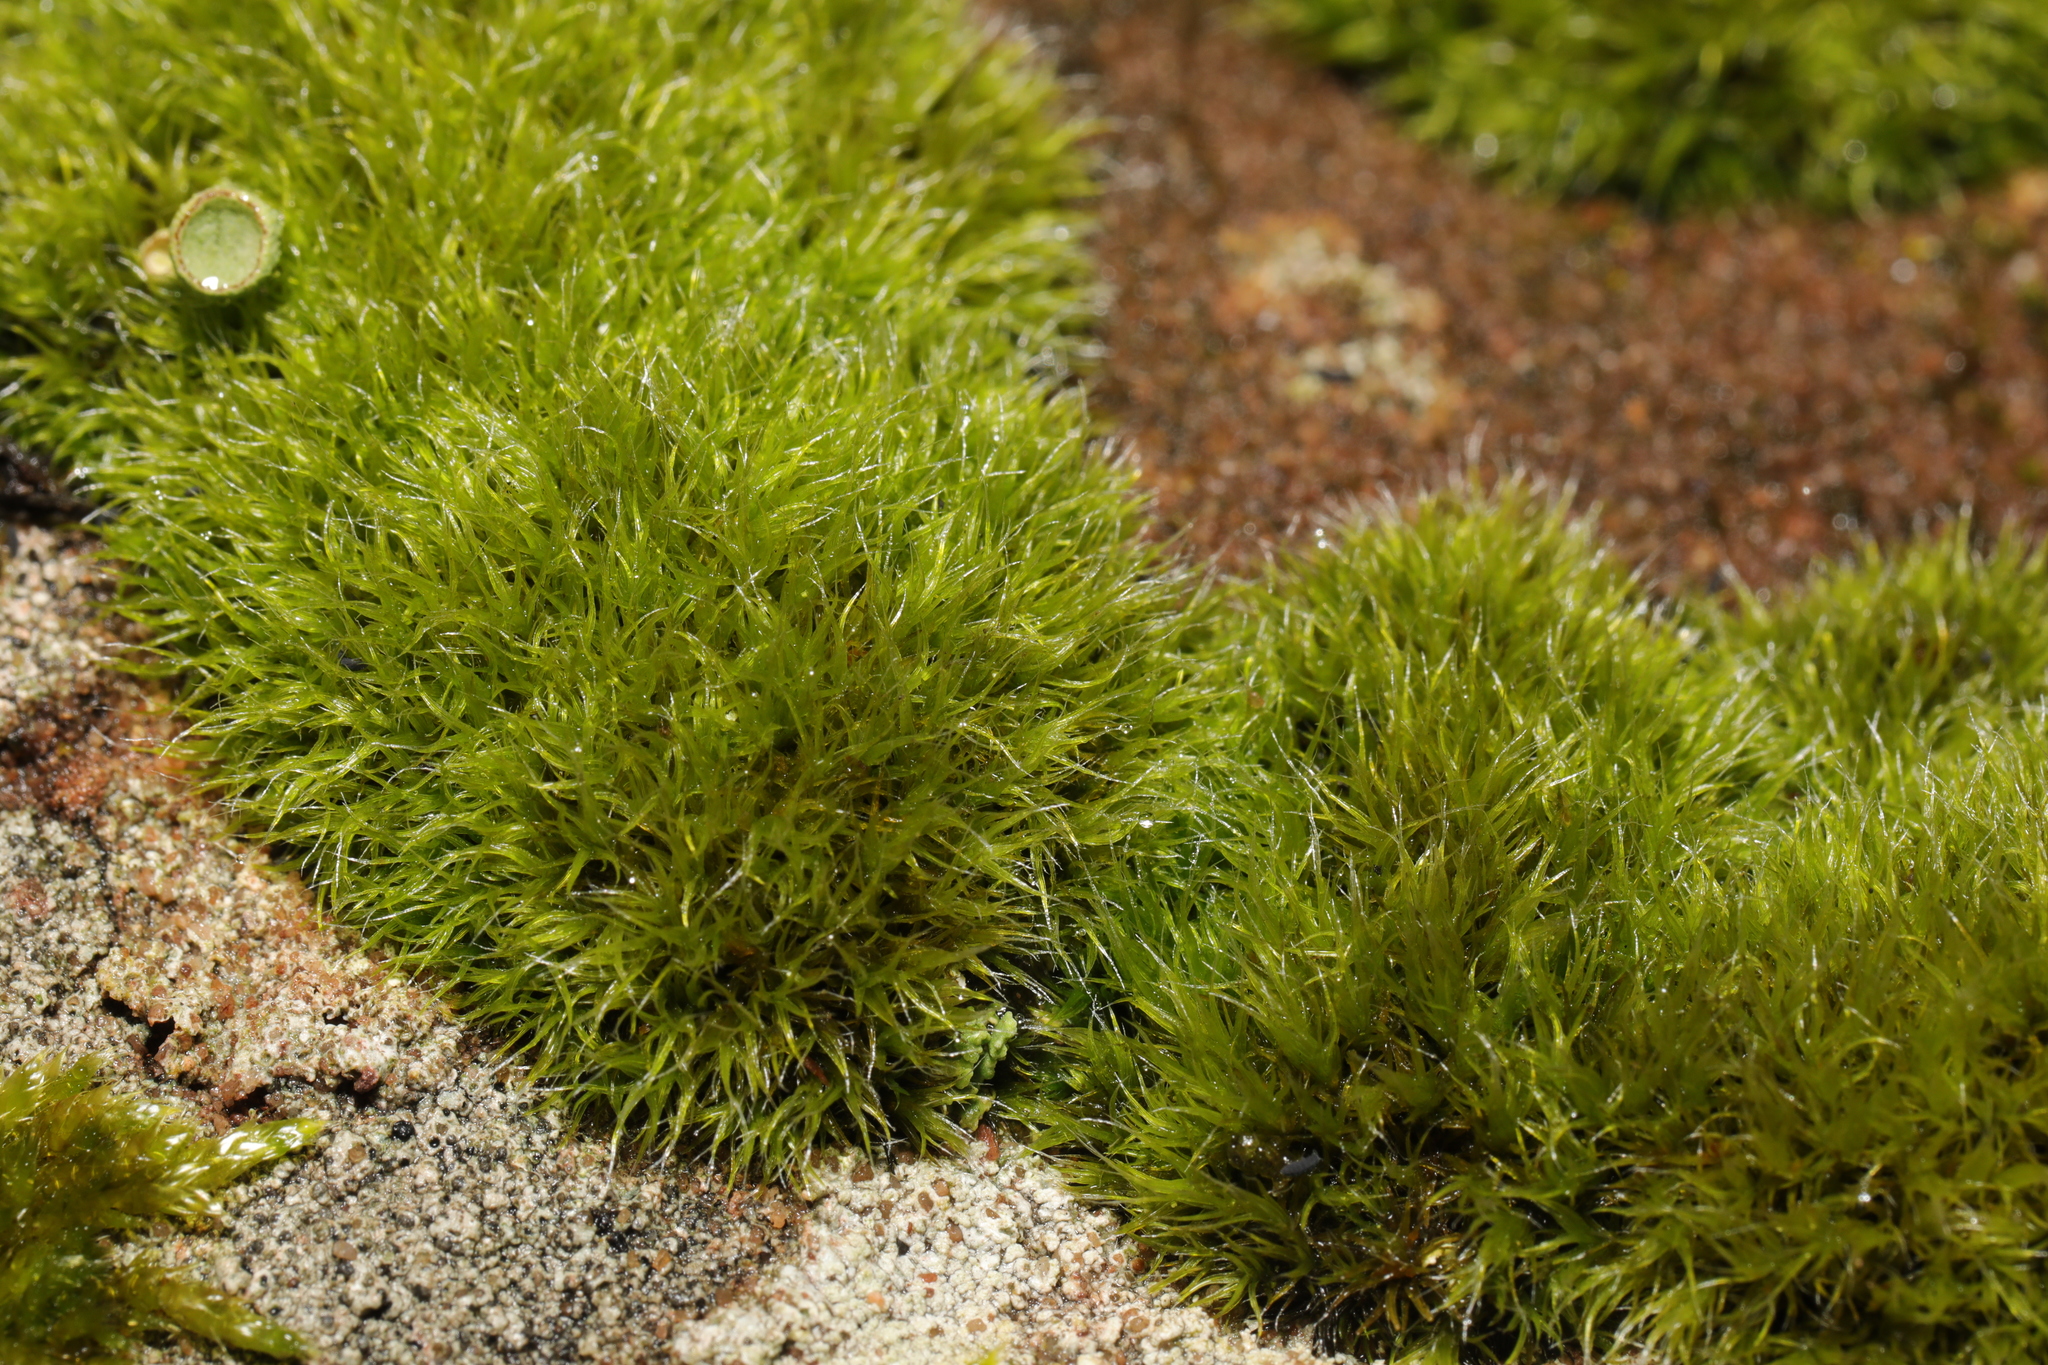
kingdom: Plantae
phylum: Bryophyta
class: Bryopsida
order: Grimmiales
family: Grimmiaceae
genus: Grimmia
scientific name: Grimmia pulvinata
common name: Grey-cushioned grimmia
